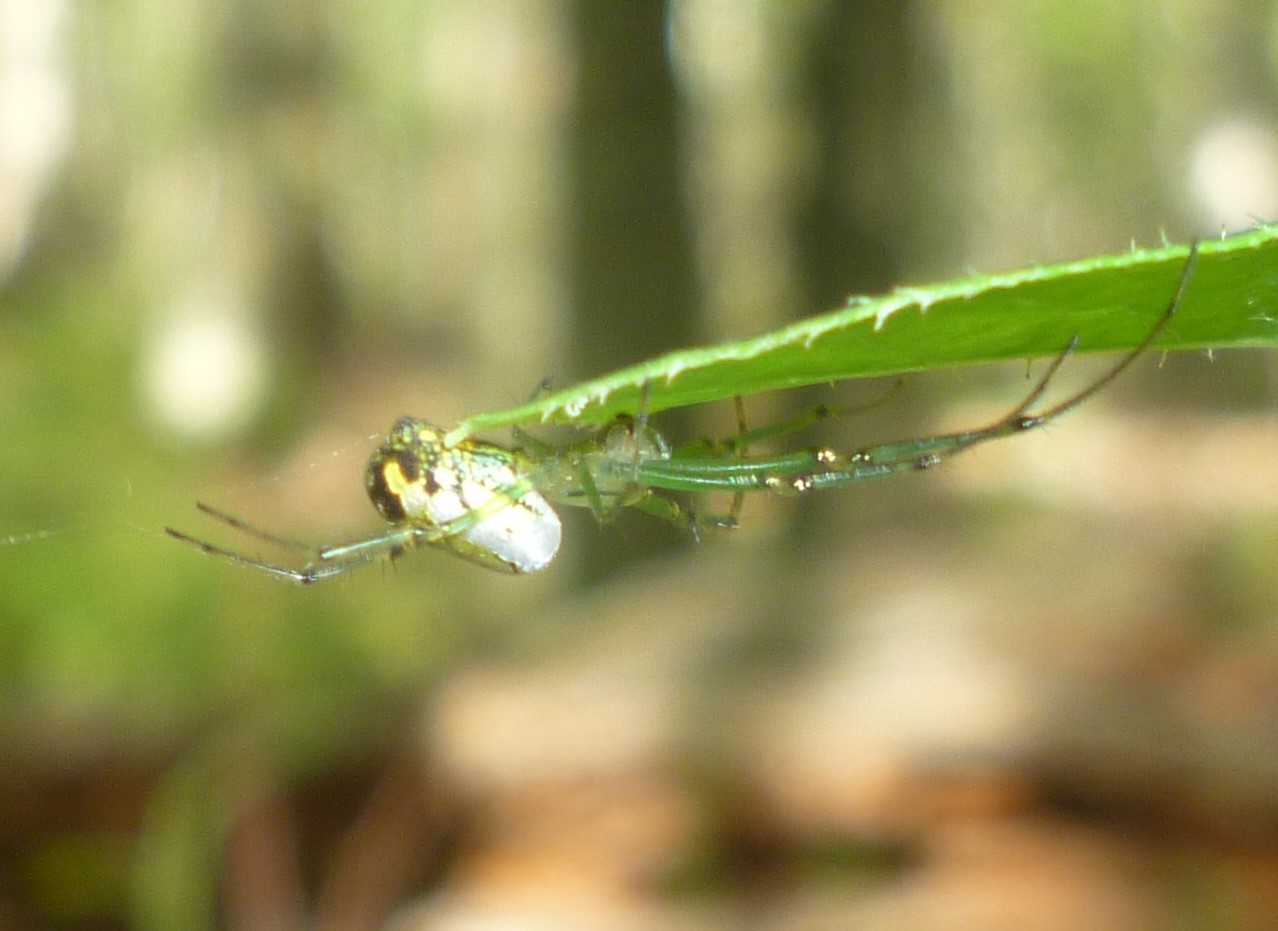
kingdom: Animalia
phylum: Arthropoda
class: Arachnida
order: Araneae
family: Tetragnathidae
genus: Leucauge
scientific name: Leucauge venusta
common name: Longjawed orb weavers
